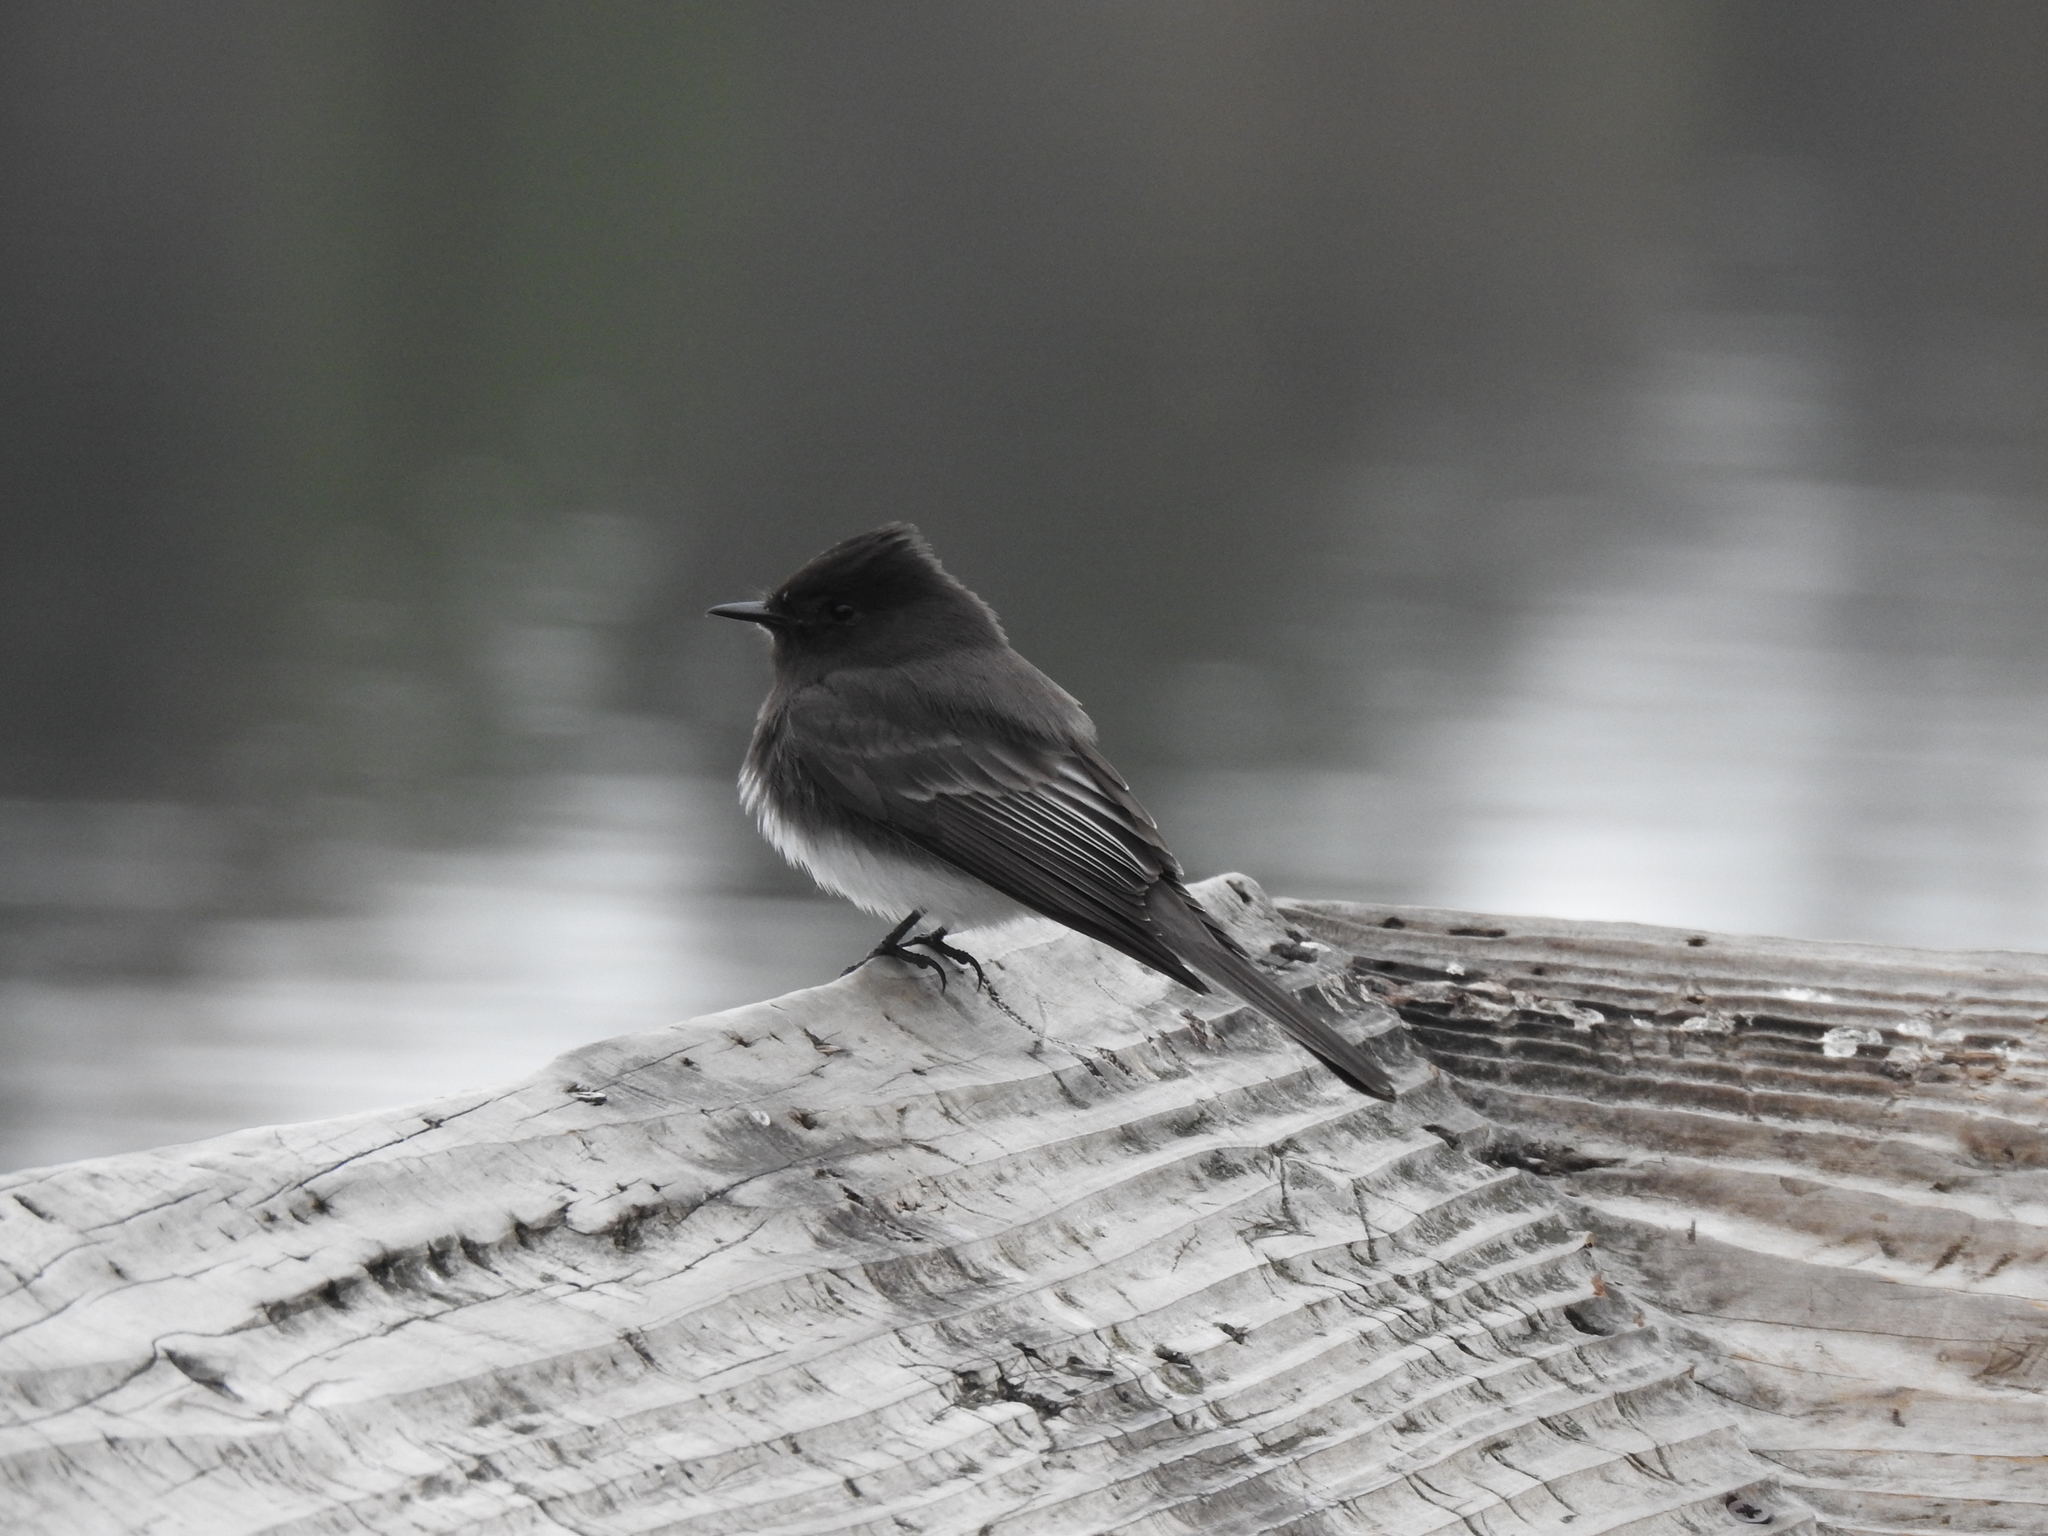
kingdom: Animalia
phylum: Chordata
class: Aves
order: Passeriformes
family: Tyrannidae
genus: Sayornis
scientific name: Sayornis nigricans
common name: Black phoebe
